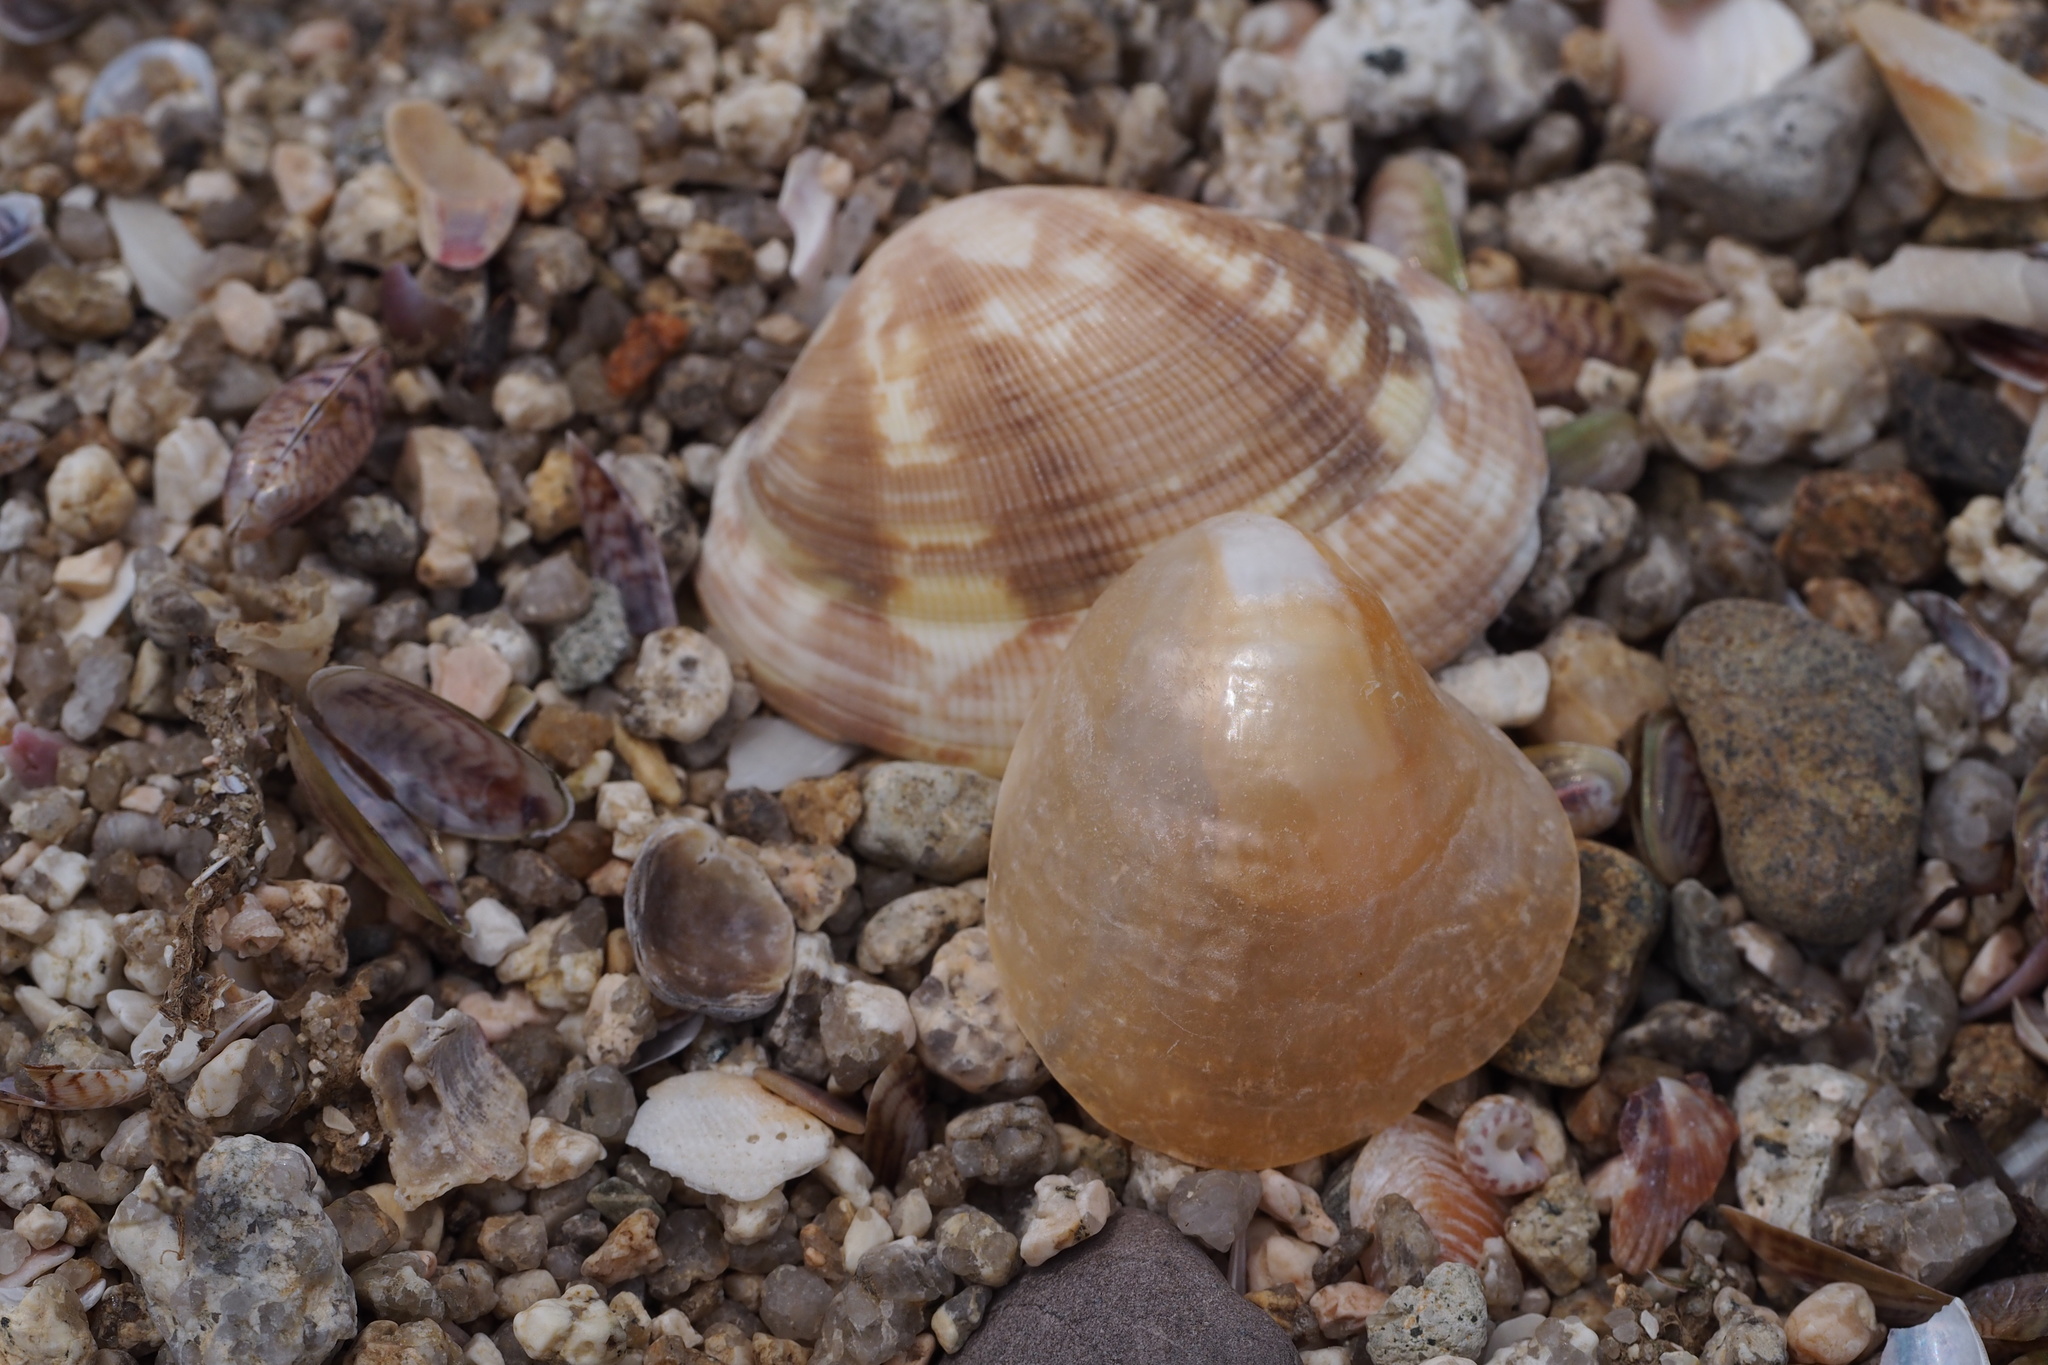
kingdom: Animalia
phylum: Mollusca
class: Bivalvia
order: Pectinida
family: Anomiidae
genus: Anomia
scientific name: Anomia chinensis
